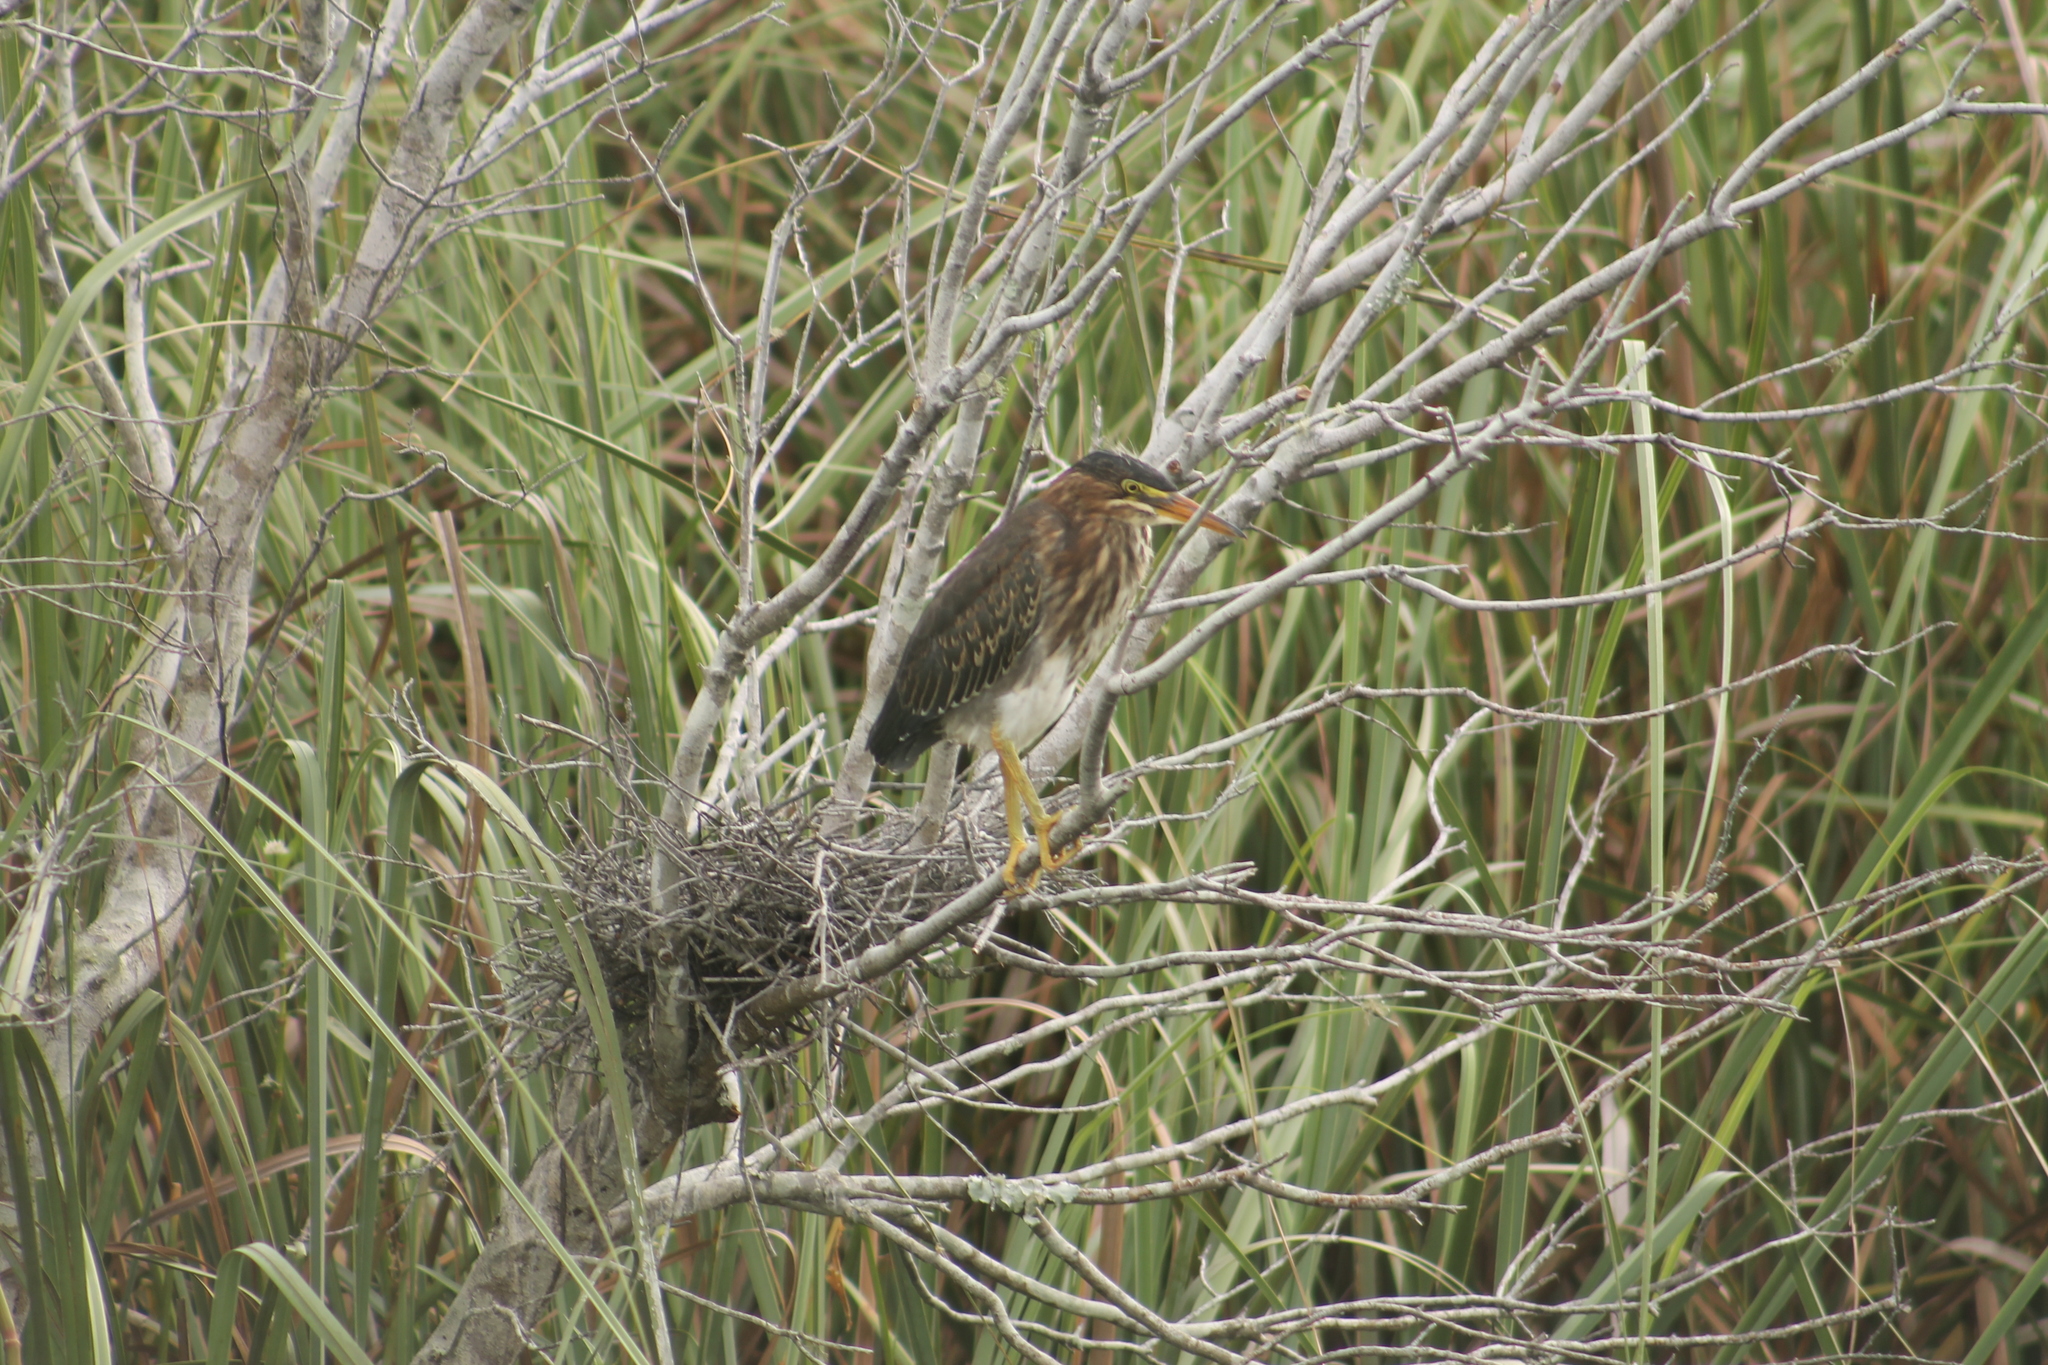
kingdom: Animalia
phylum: Chordata
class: Aves
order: Pelecaniformes
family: Ardeidae
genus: Butorides
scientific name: Butorides virescens
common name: Green heron
